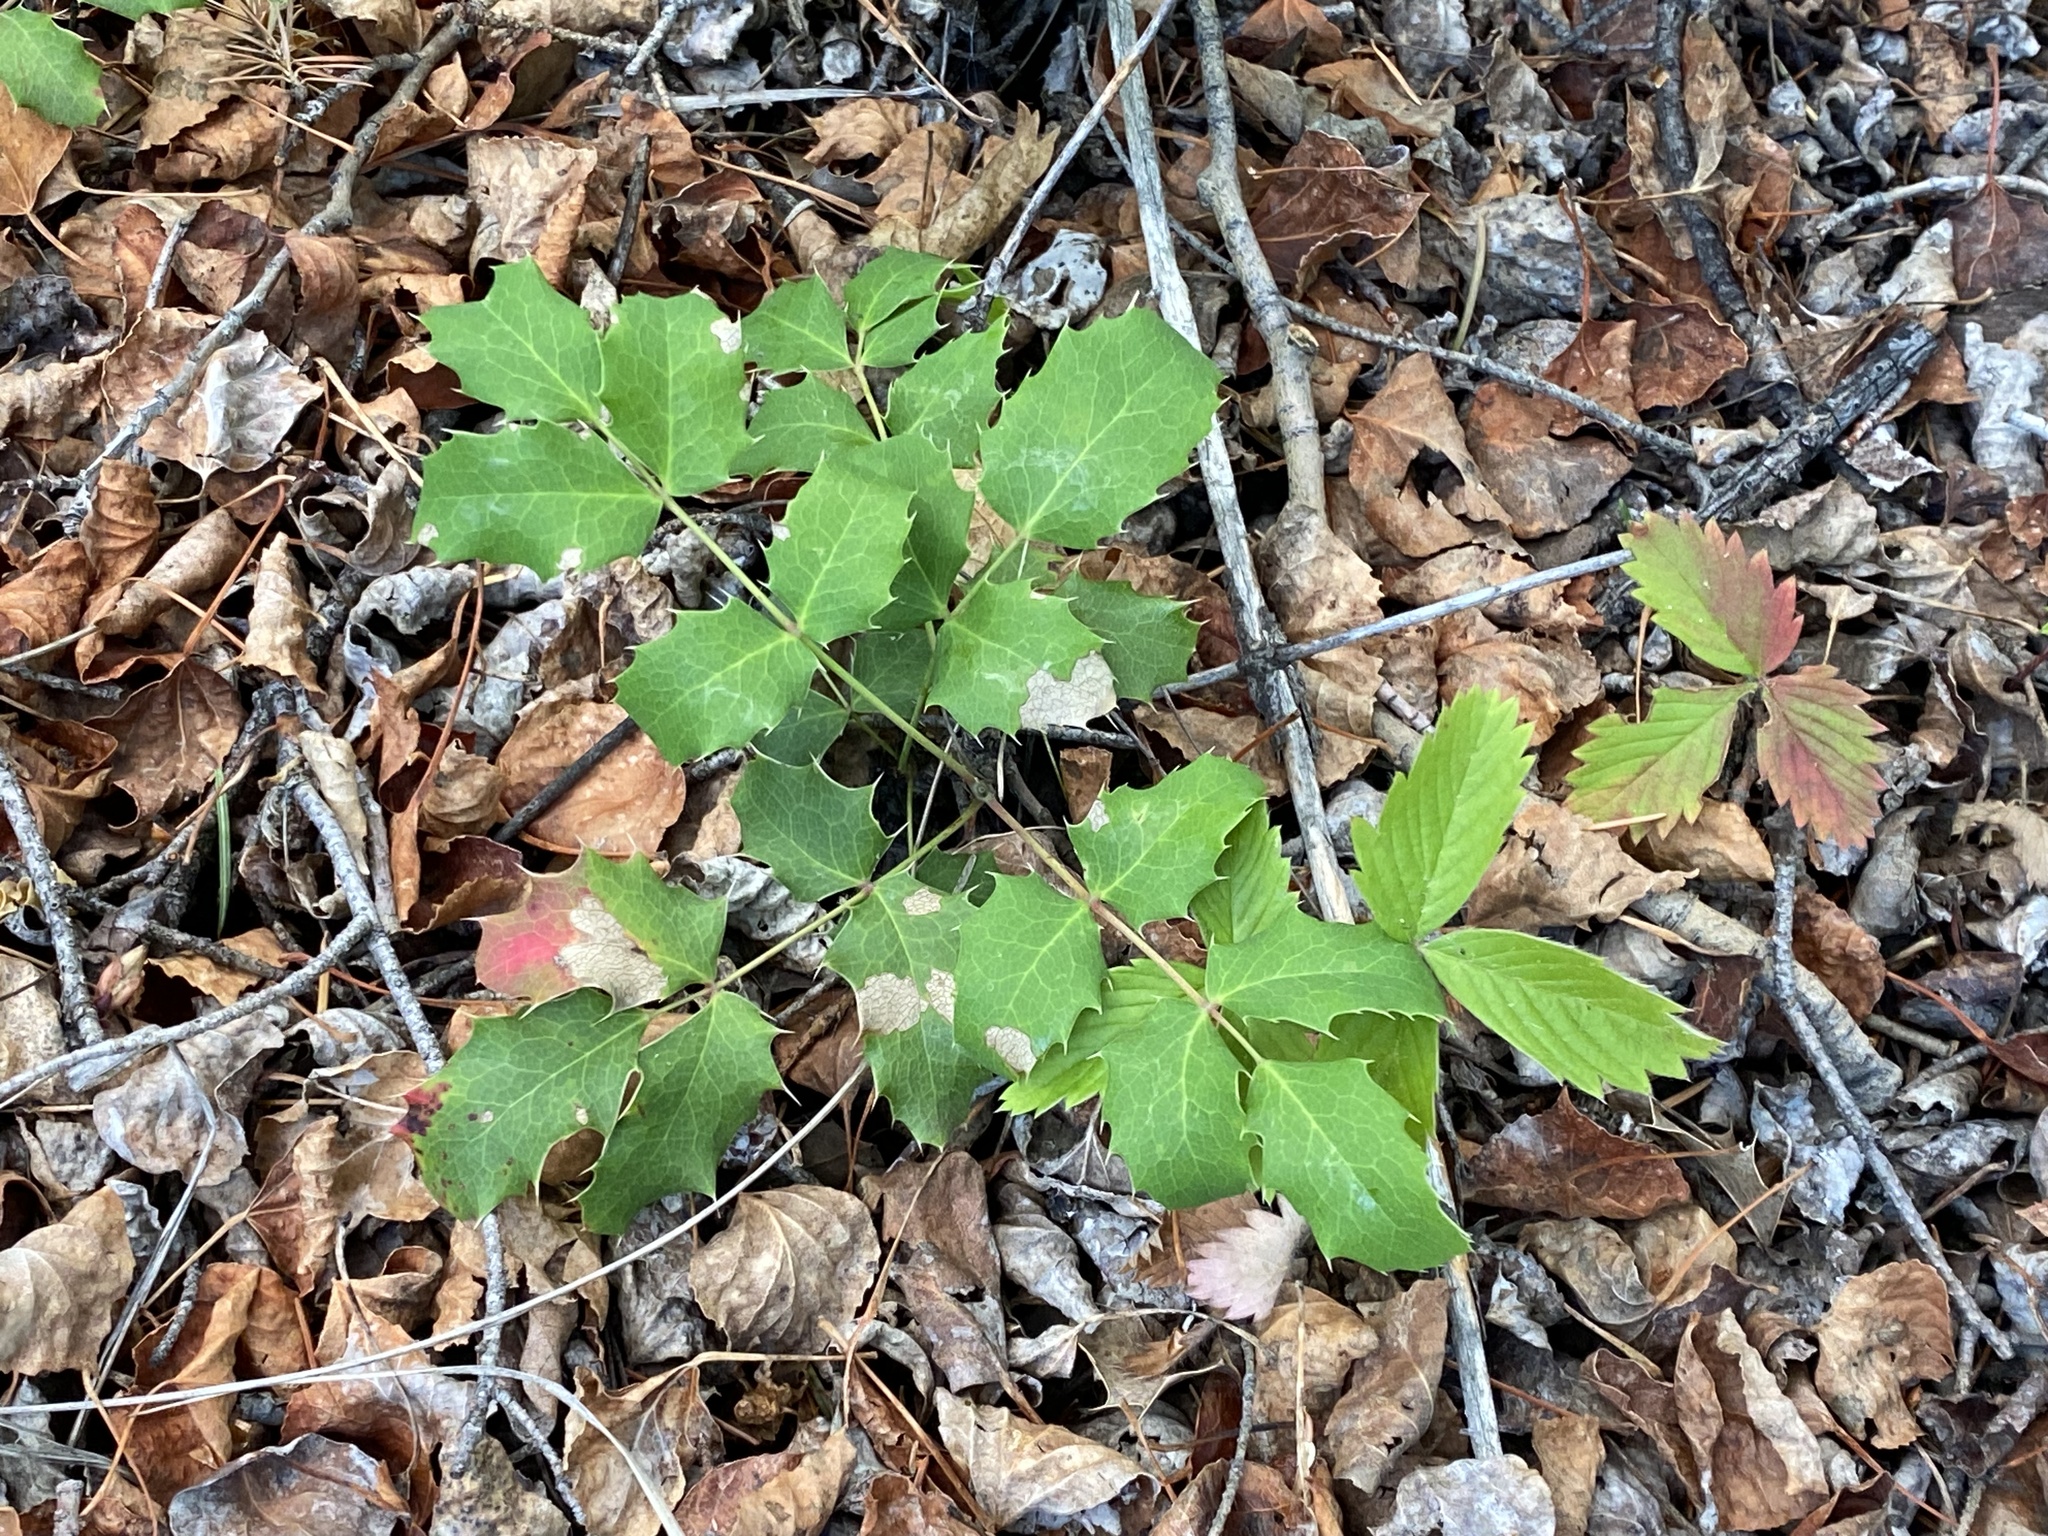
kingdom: Plantae
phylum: Tracheophyta
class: Magnoliopsida
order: Ranunculales
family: Berberidaceae
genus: Mahonia
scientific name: Mahonia repens
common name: Creeping oregon-grape
